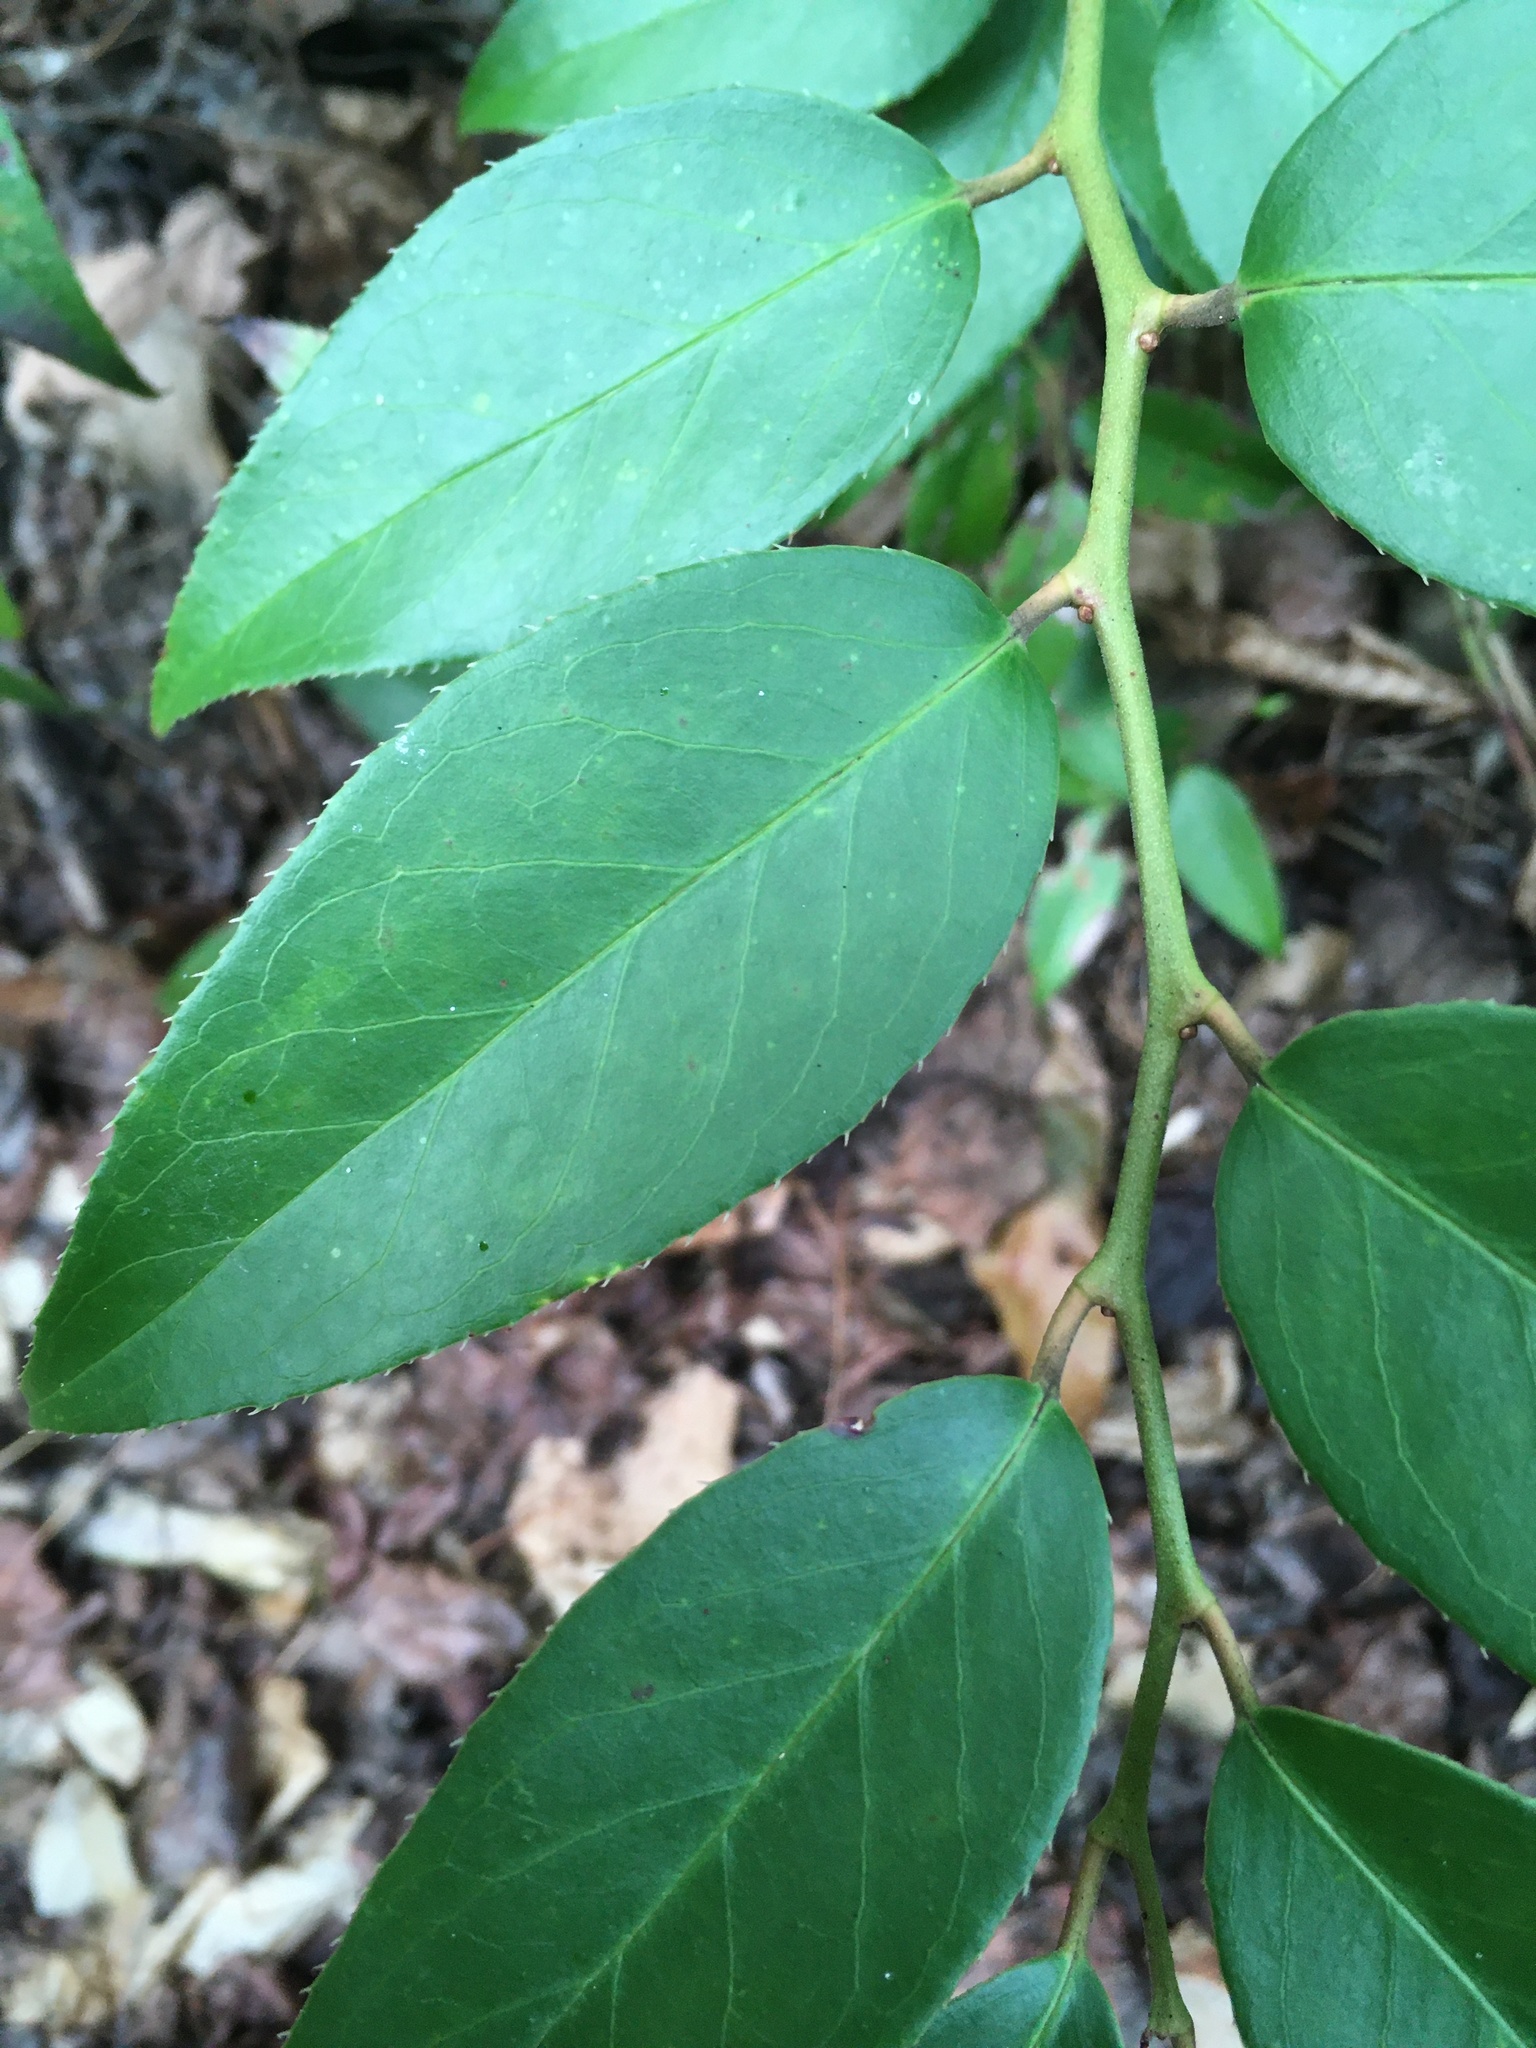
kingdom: Plantae
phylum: Tracheophyta
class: Magnoliopsida
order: Ericales
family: Ericaceae
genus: Leucothoe
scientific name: Leucothoe fontanesiana
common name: Fetterbush
